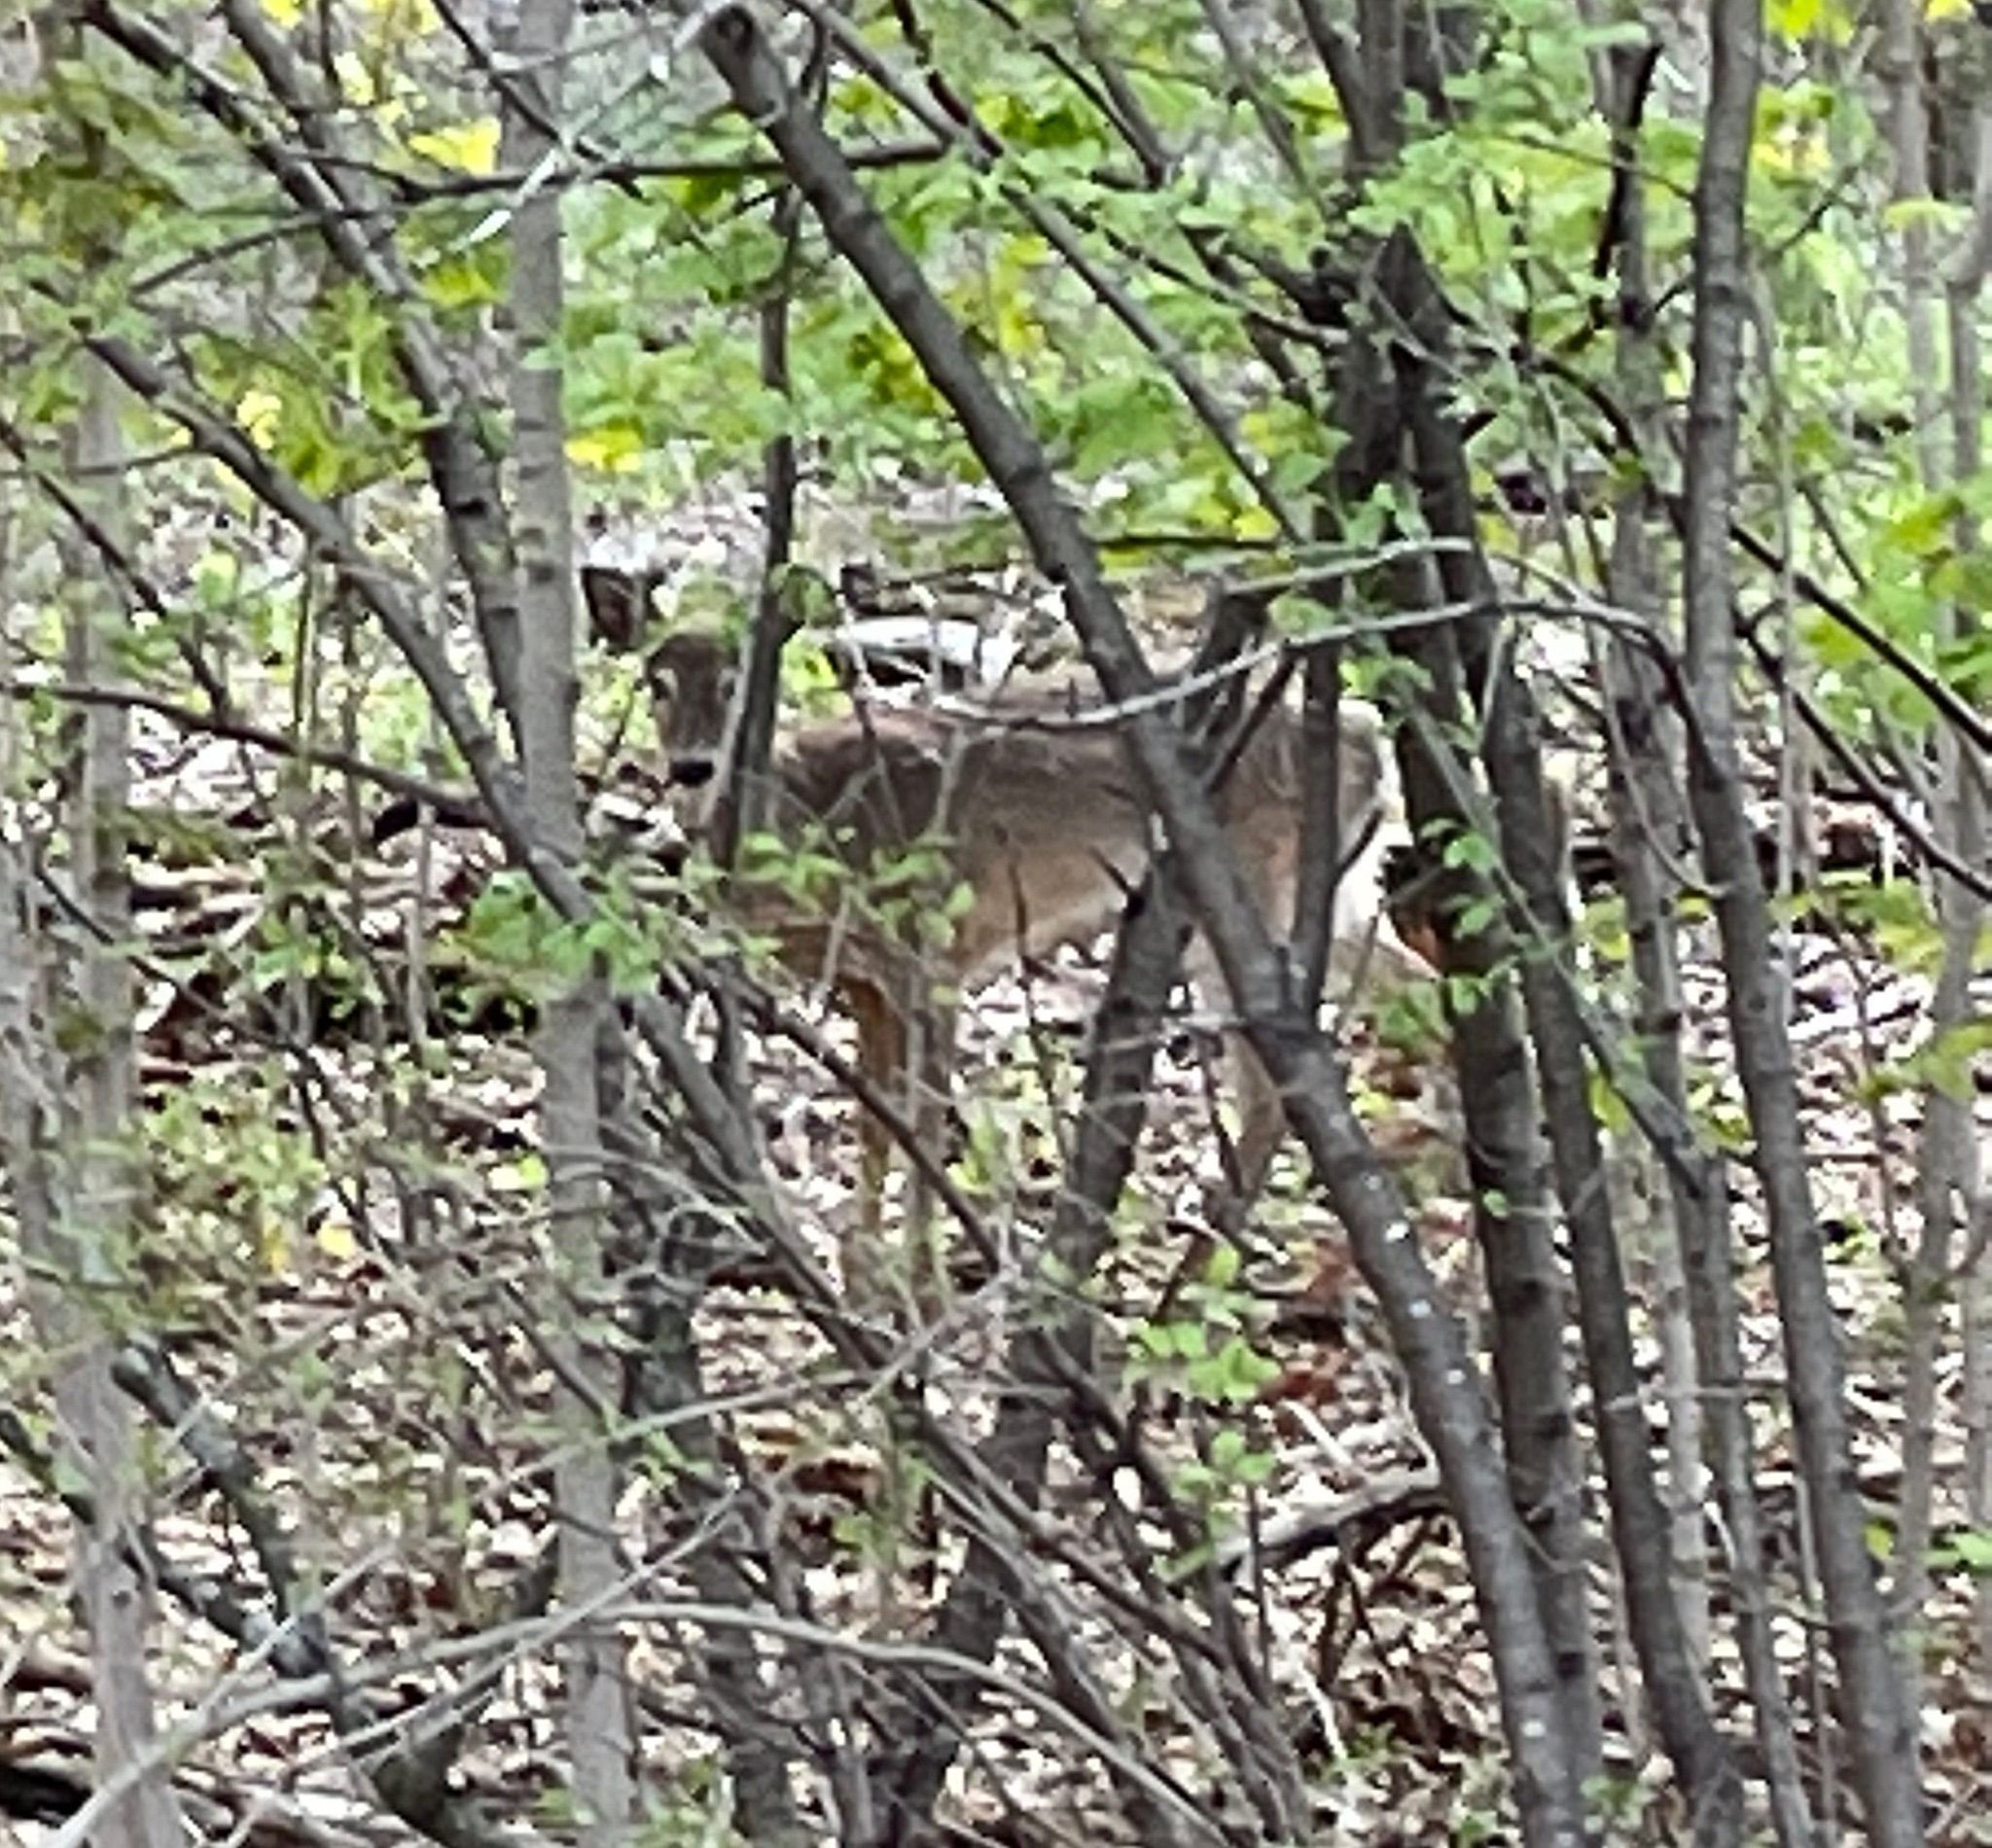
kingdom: Animalia
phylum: Chordata
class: Mammalia
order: Artiodactyla
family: Cervidae
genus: Odocoileus
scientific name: Odocoileus virginianus
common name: White-tailed deer
